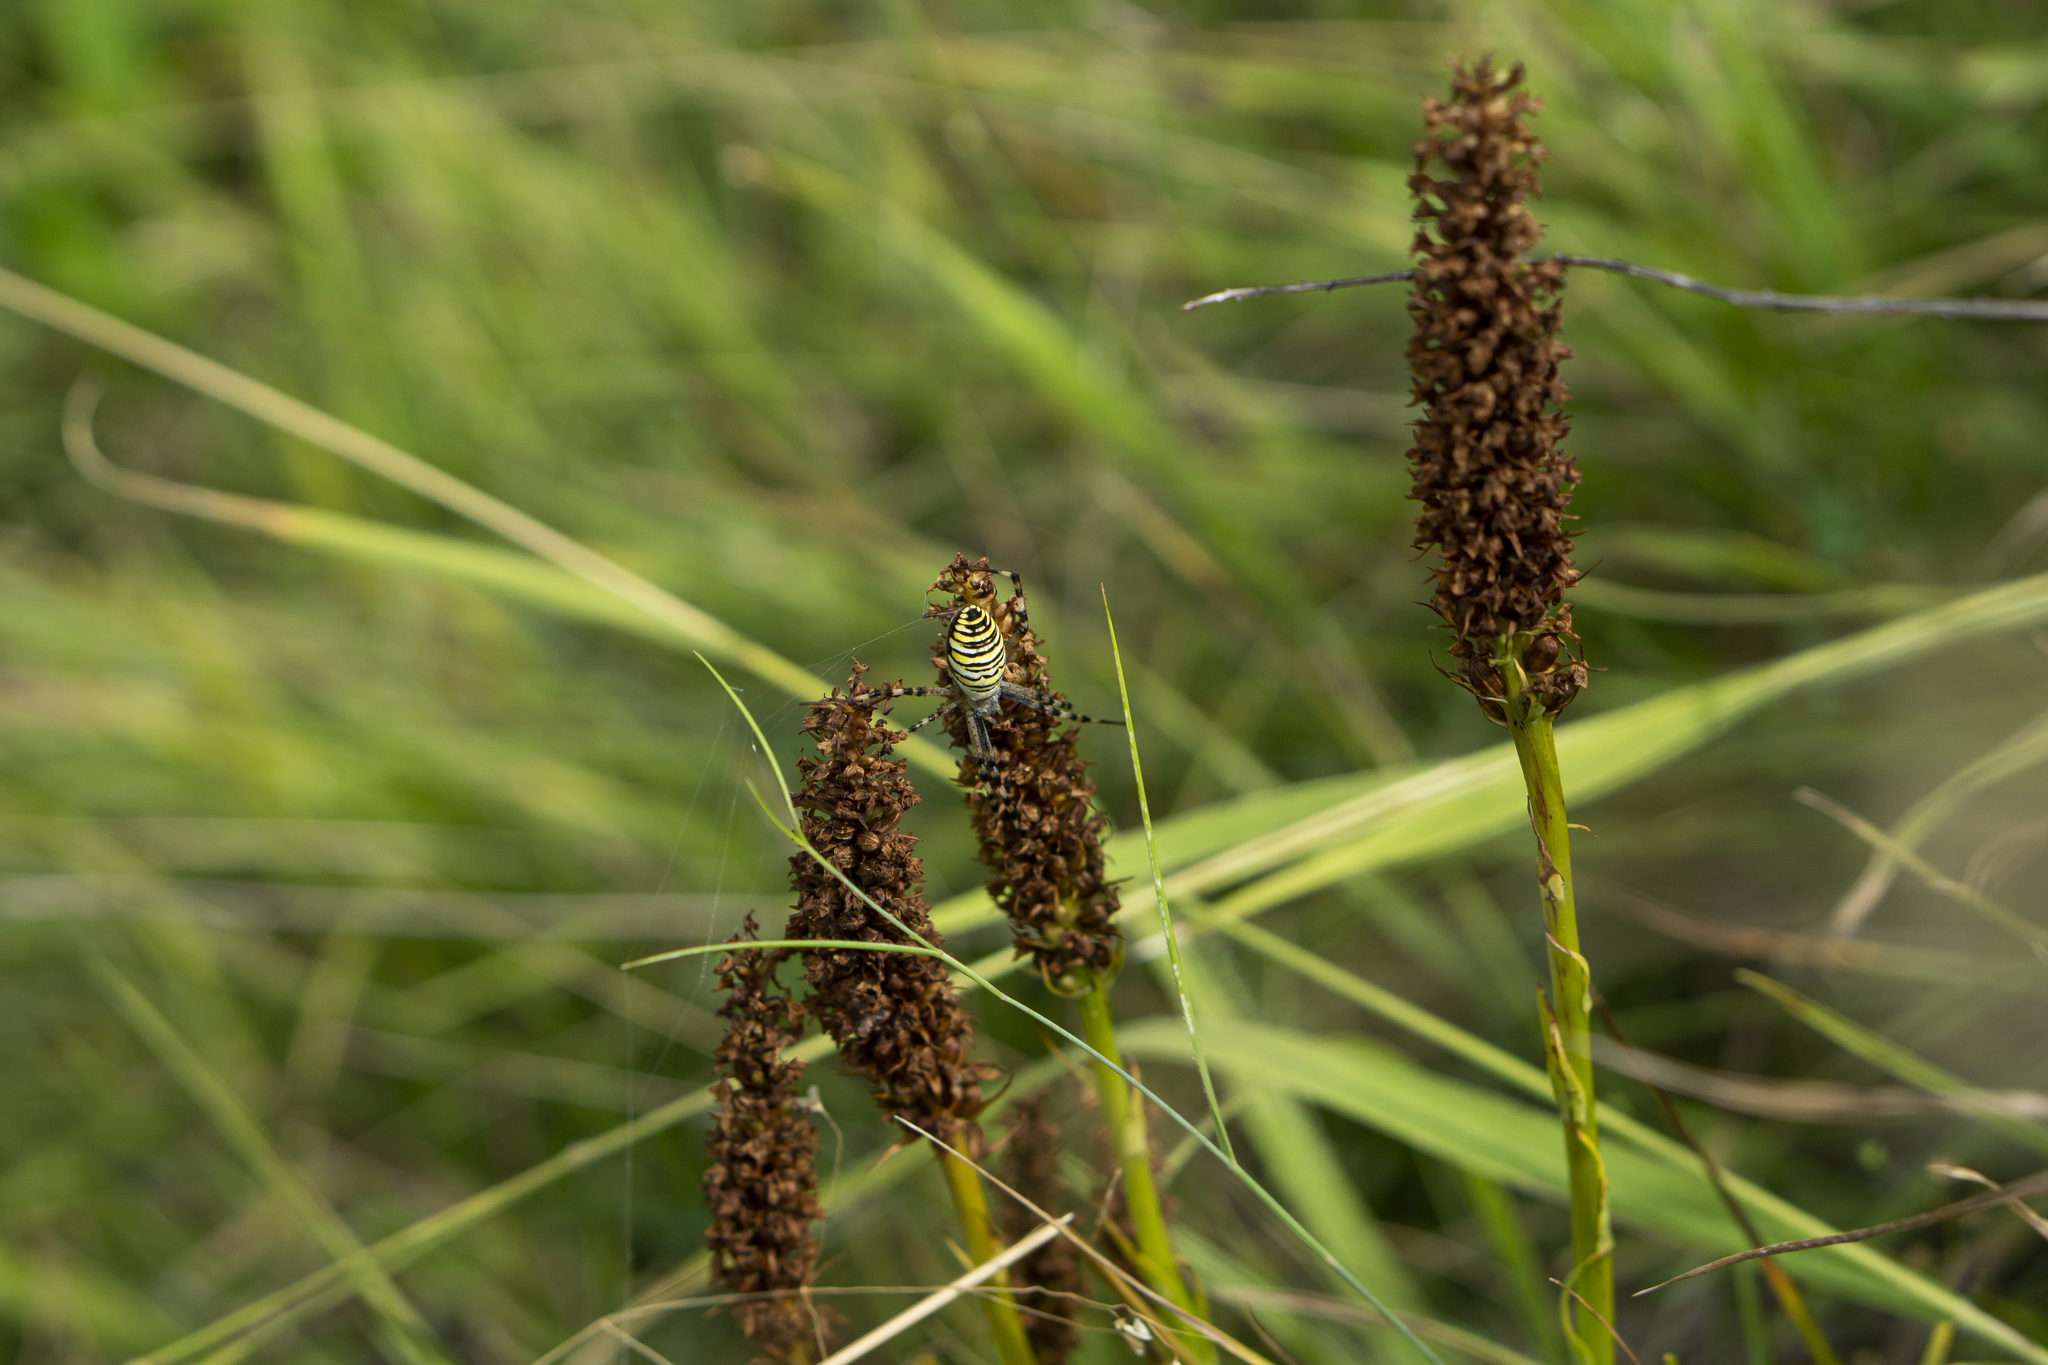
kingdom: Animalia
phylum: Arthropoda
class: Arachnida
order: Araneae
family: Araneidae
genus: Argiope
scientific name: Argiope bruennichi
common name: Wasp spider
